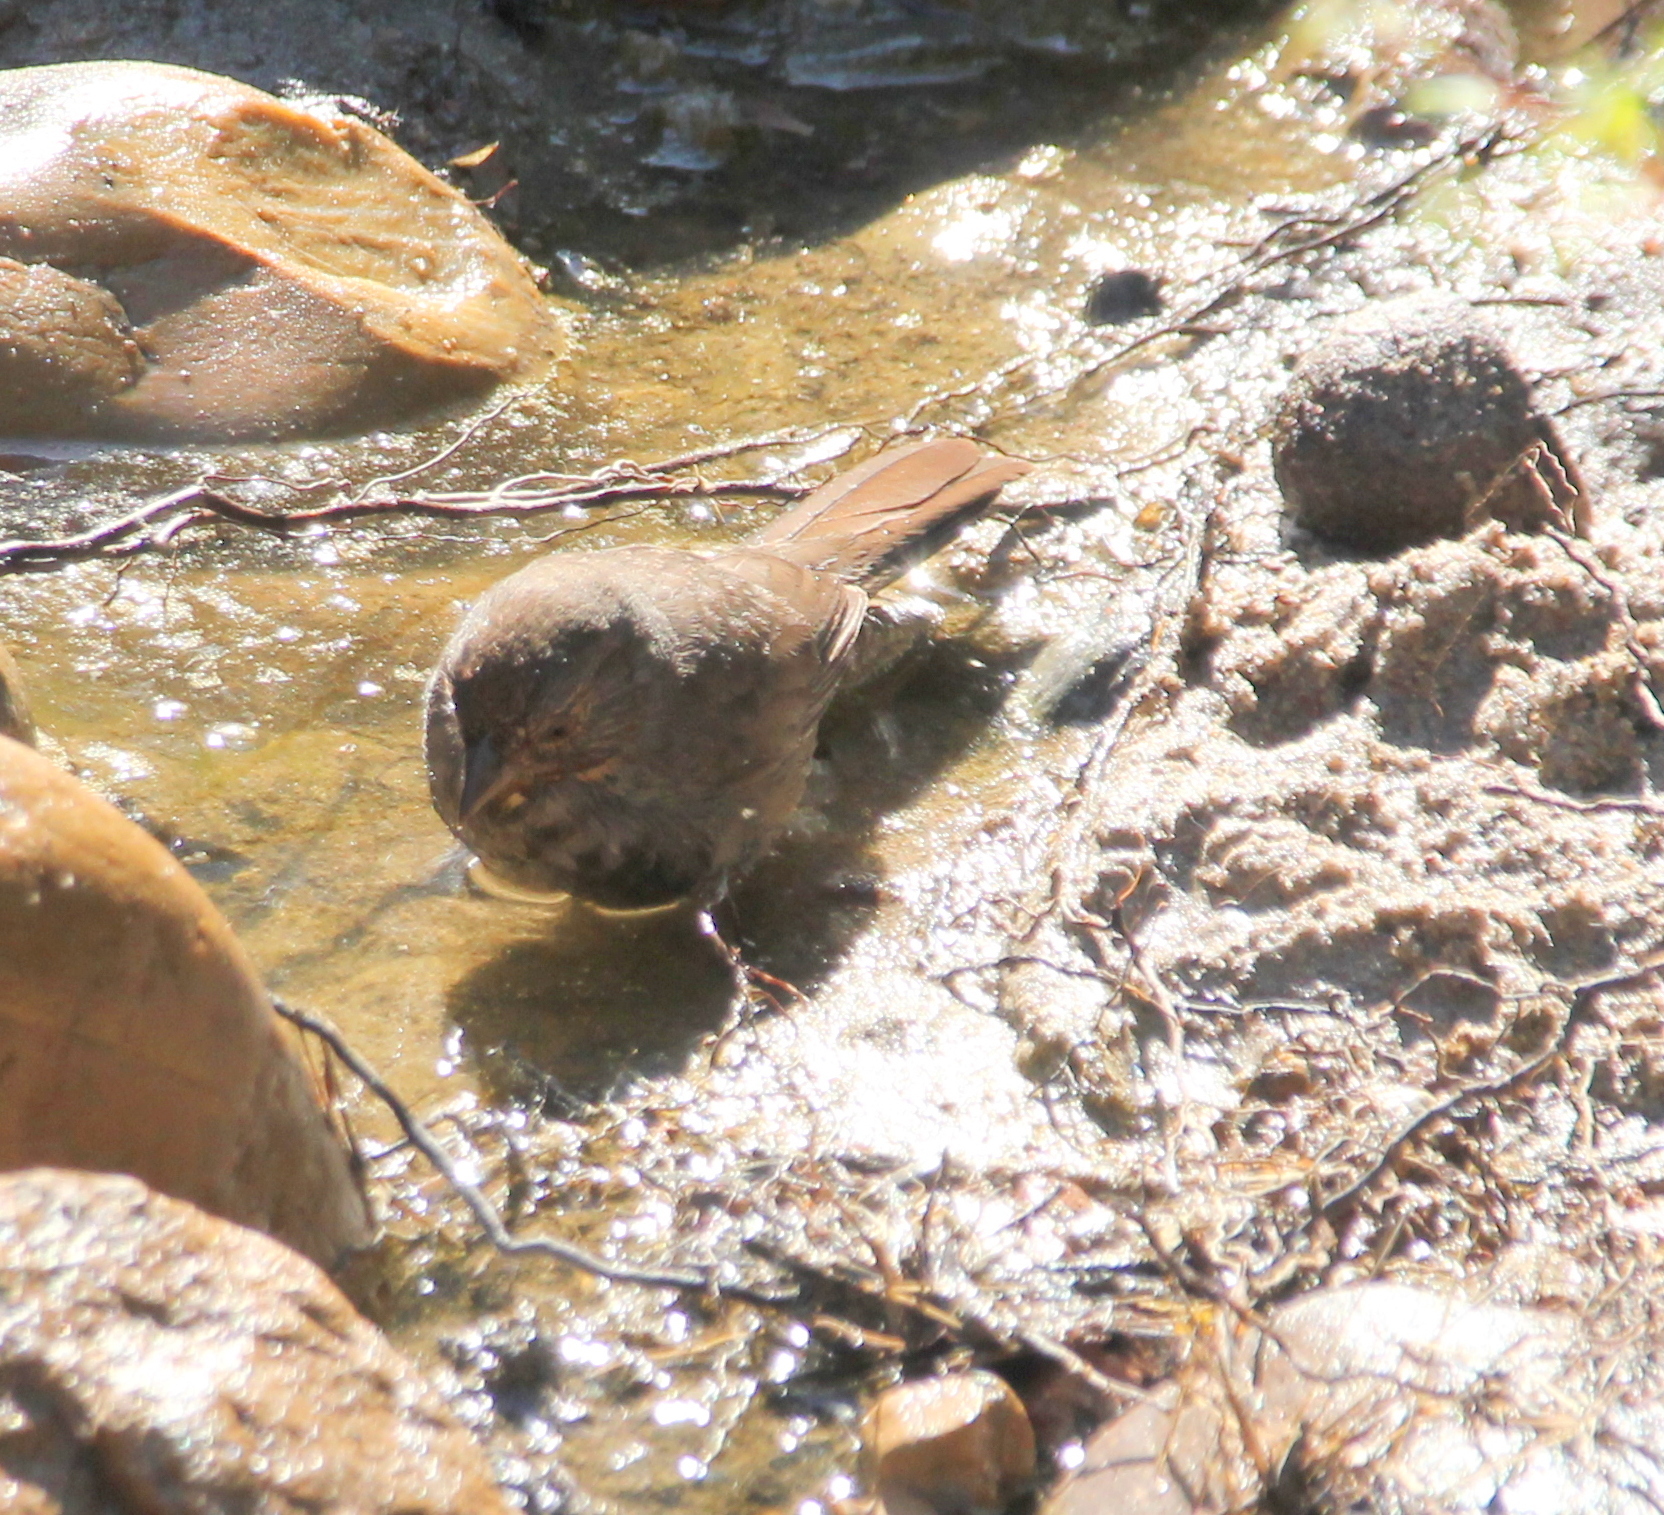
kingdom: Animalia
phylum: Chordata
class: Aves
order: Passeriformes
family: Passerellidae
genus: Melozone
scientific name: Melozone crissalis
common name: California towhee
